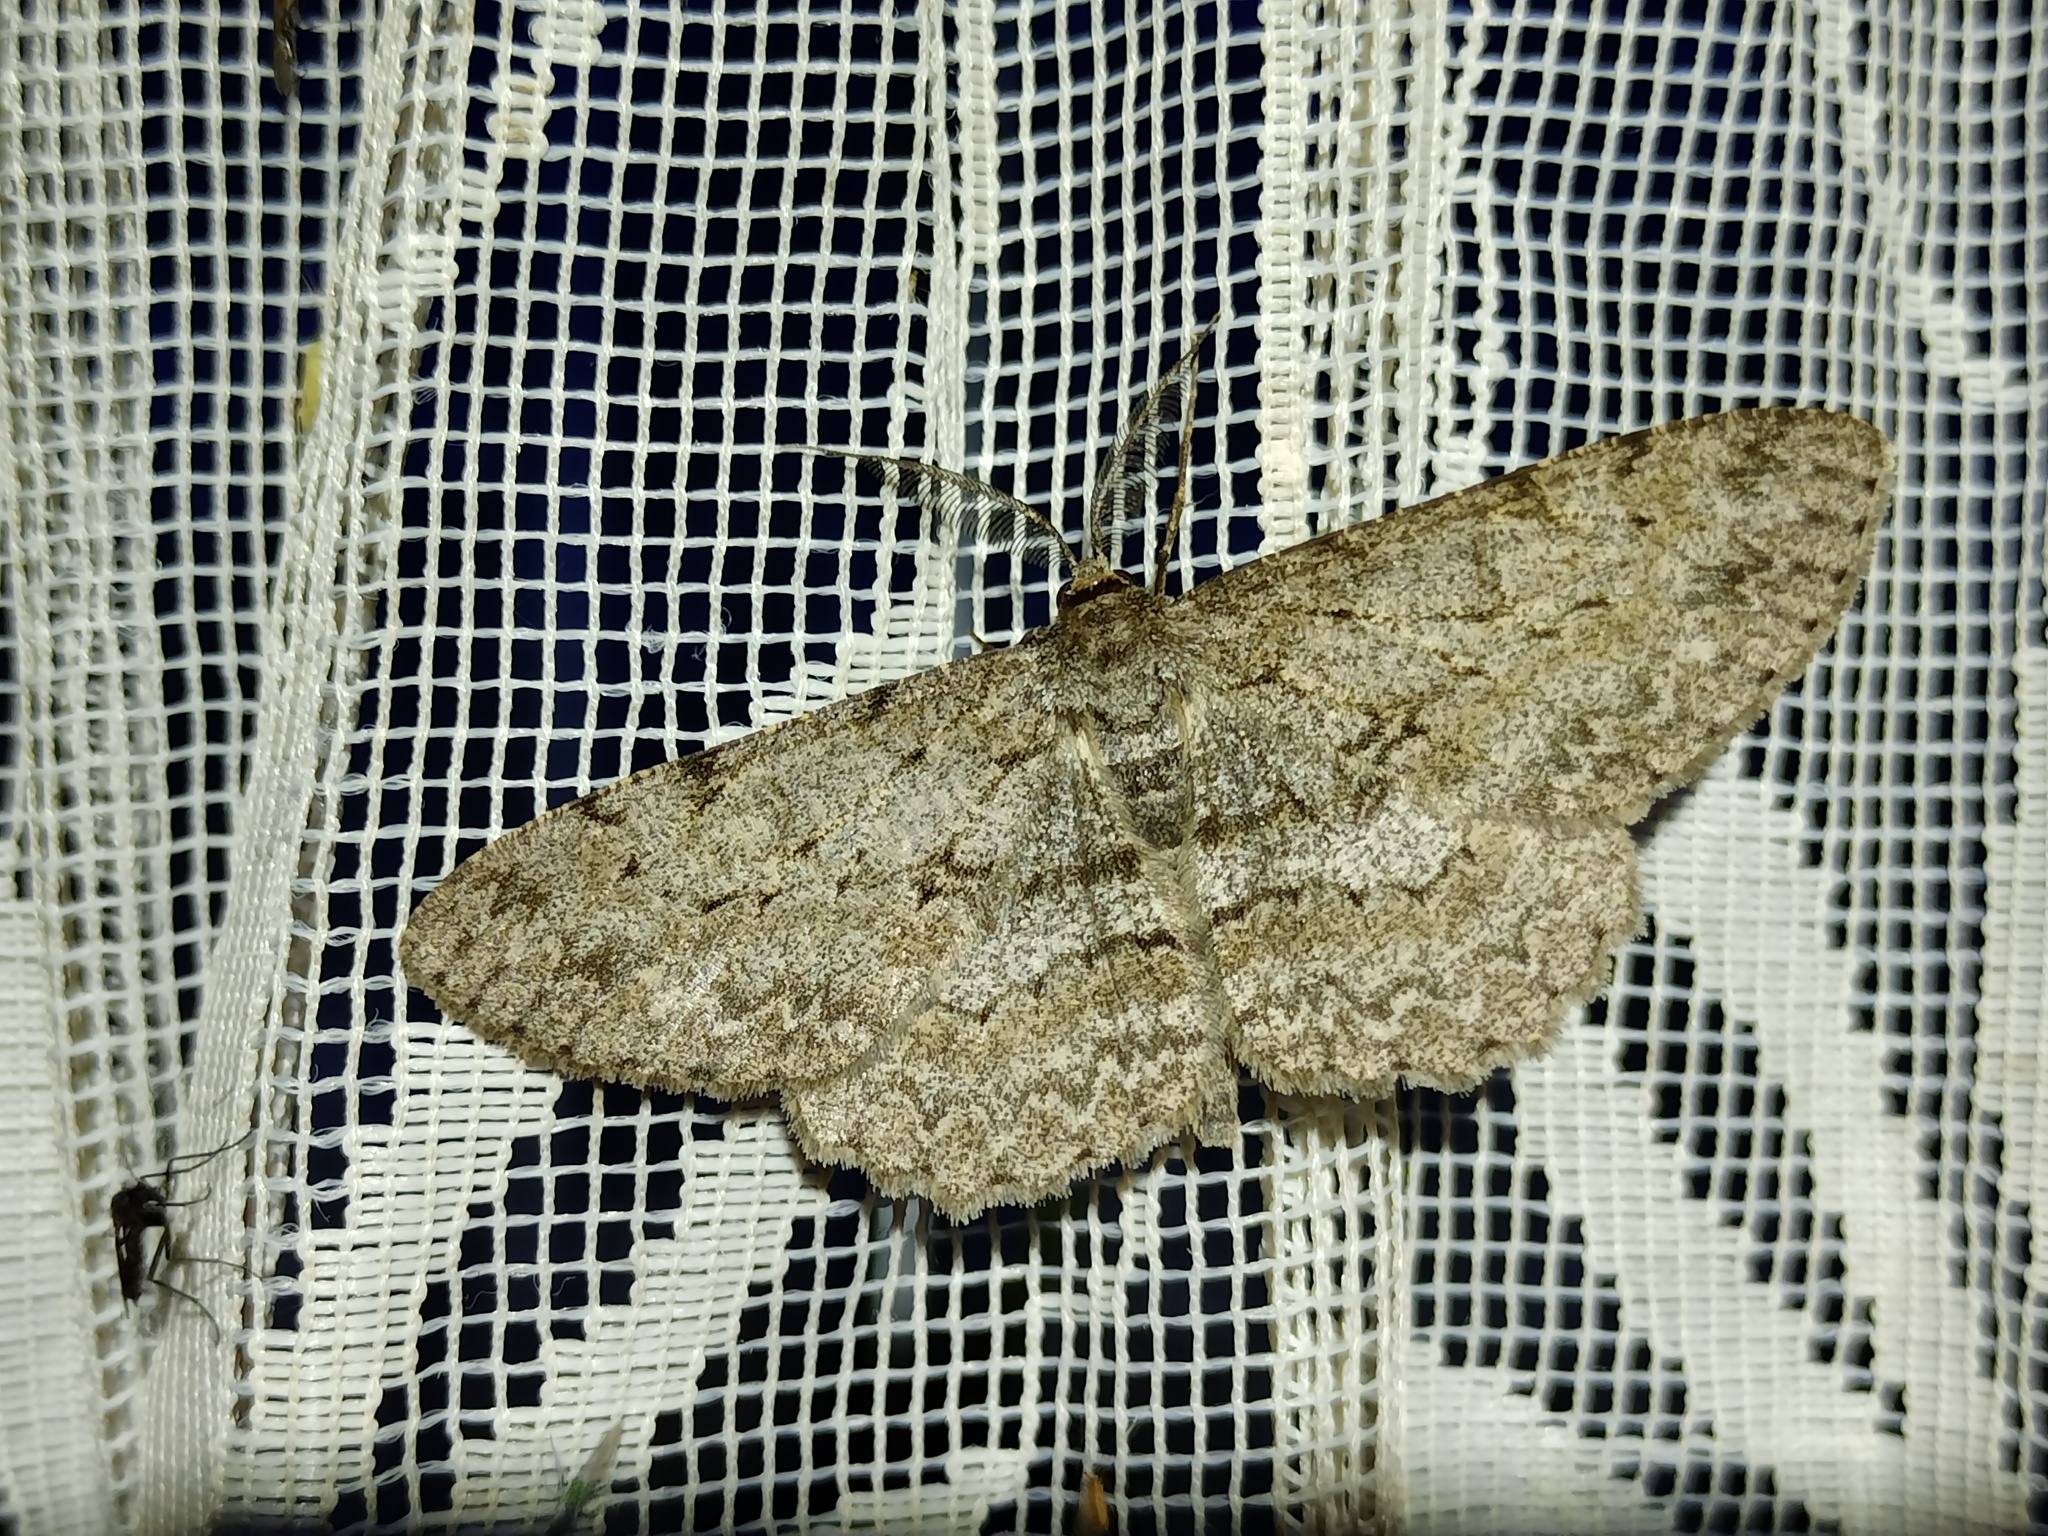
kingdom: Animalia
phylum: Arthropoda
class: Insecta
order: Lepidoptera
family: Geometridae
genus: Hypomecis
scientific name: Hypomecis punctinalis
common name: Pale oak beauty
